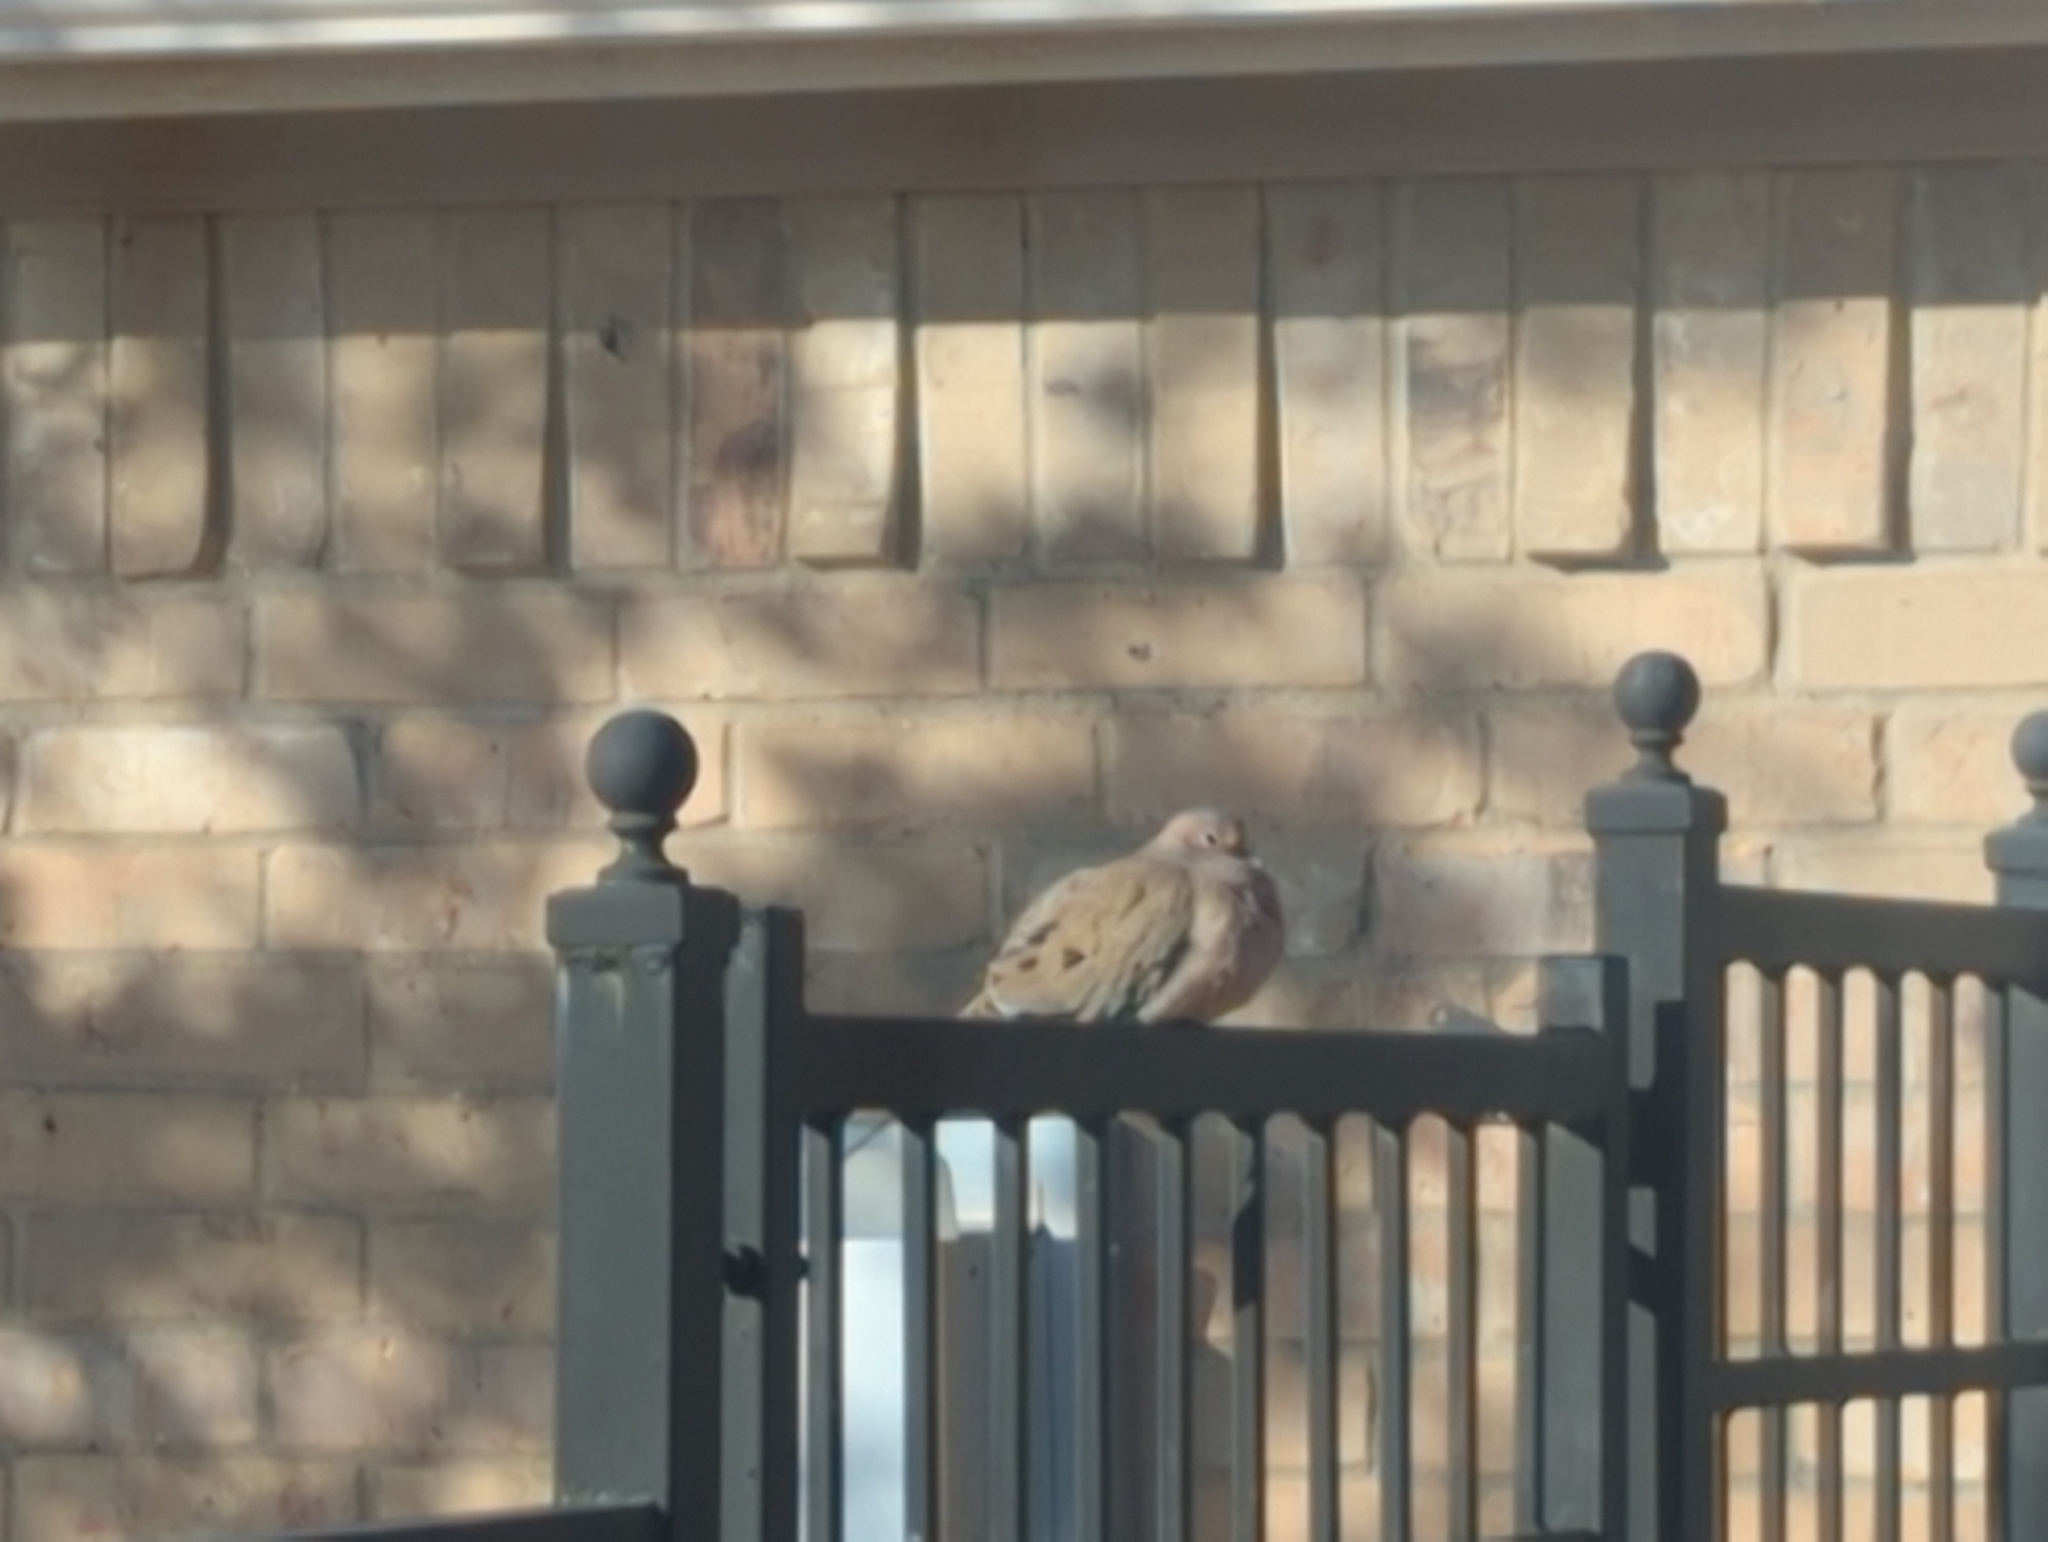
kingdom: Animalia
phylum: Chordata
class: Aves
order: Columbiformes
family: Columbidae
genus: Zenaida
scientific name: Zenaida macroura
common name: Mourning dove
